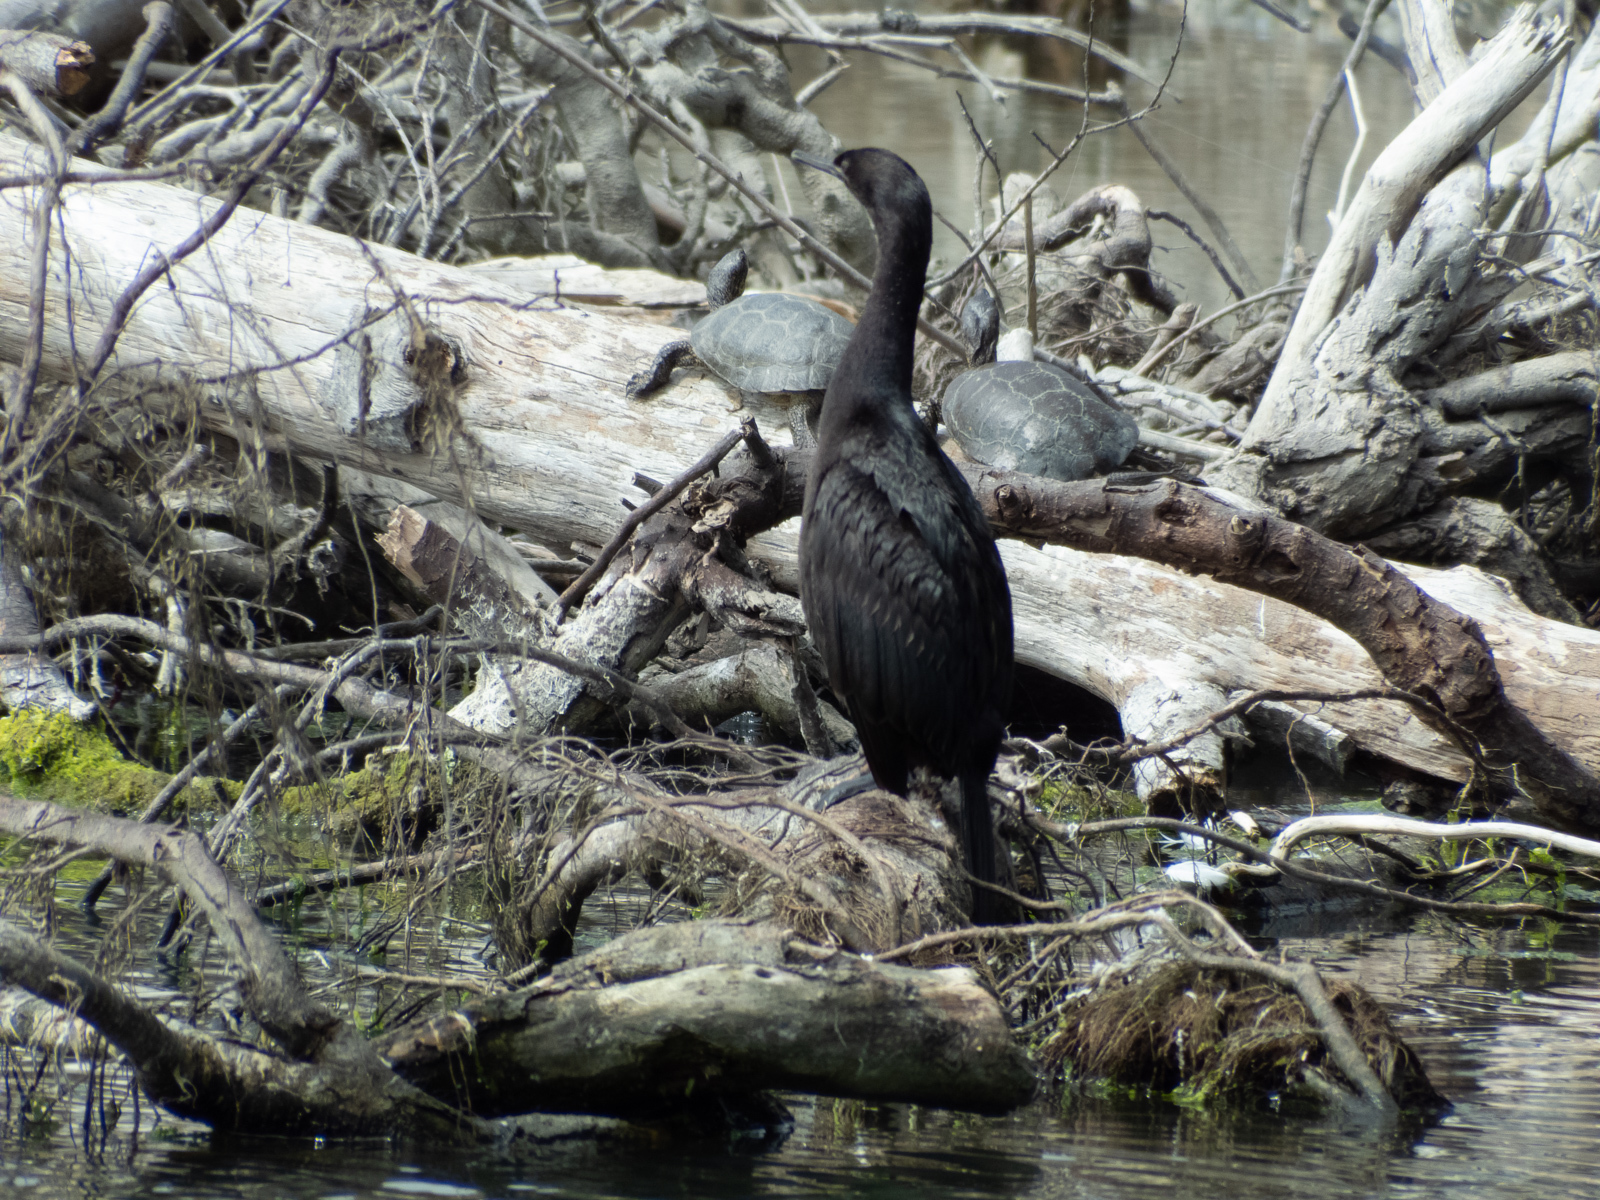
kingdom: Animalia
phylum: Chordata
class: Aves
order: Suliformes
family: Phalacrocoracidae
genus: Phalacrocorax
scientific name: Phalacrocorax pelagicus
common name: Pelagic cormorant
